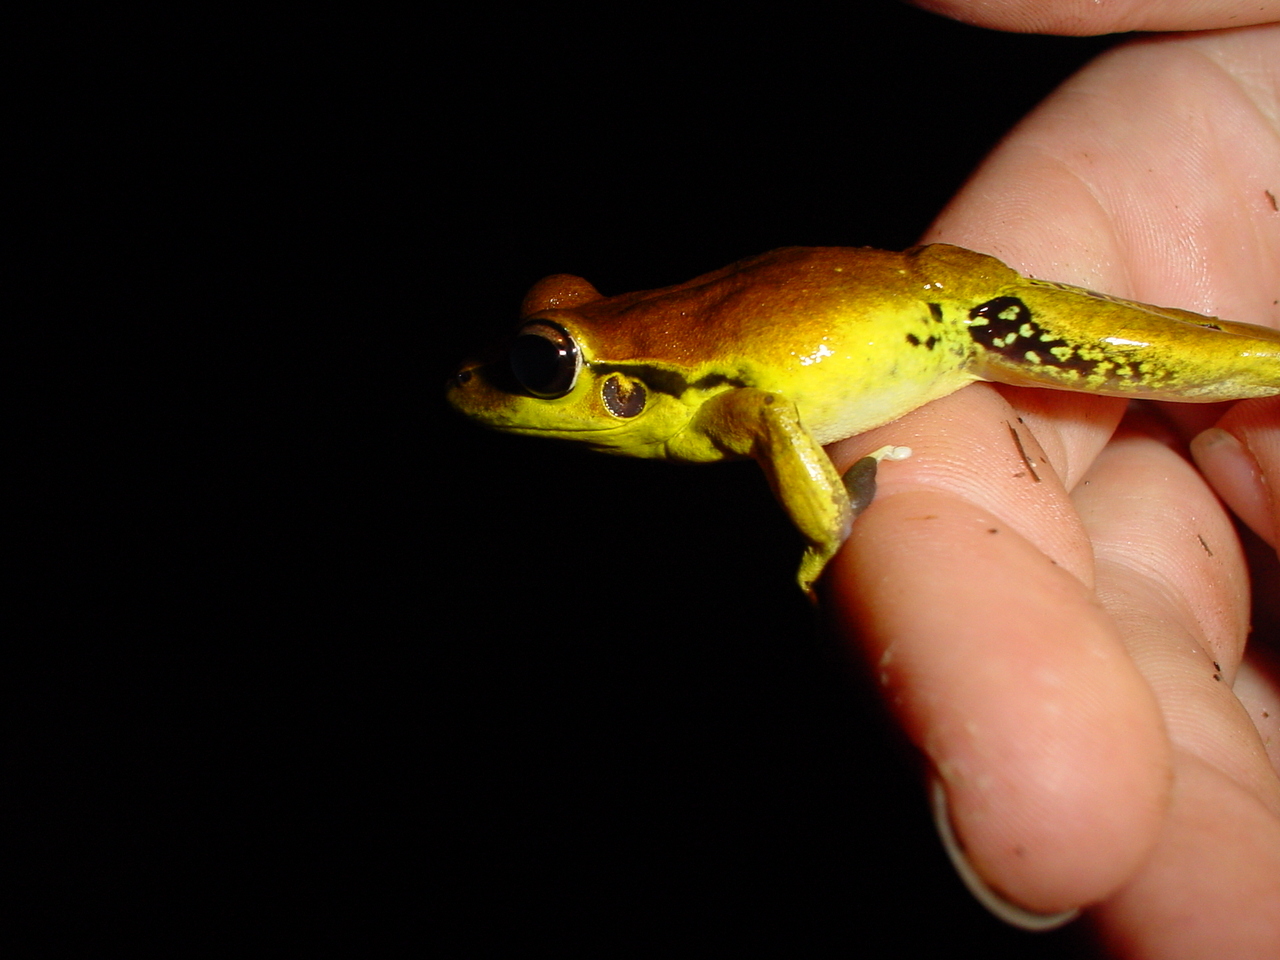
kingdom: Animalia
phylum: Chordata
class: Amphibia
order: Anura
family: Pelodryadidae
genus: Ranoidea
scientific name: Ranoidea wilcoxii
